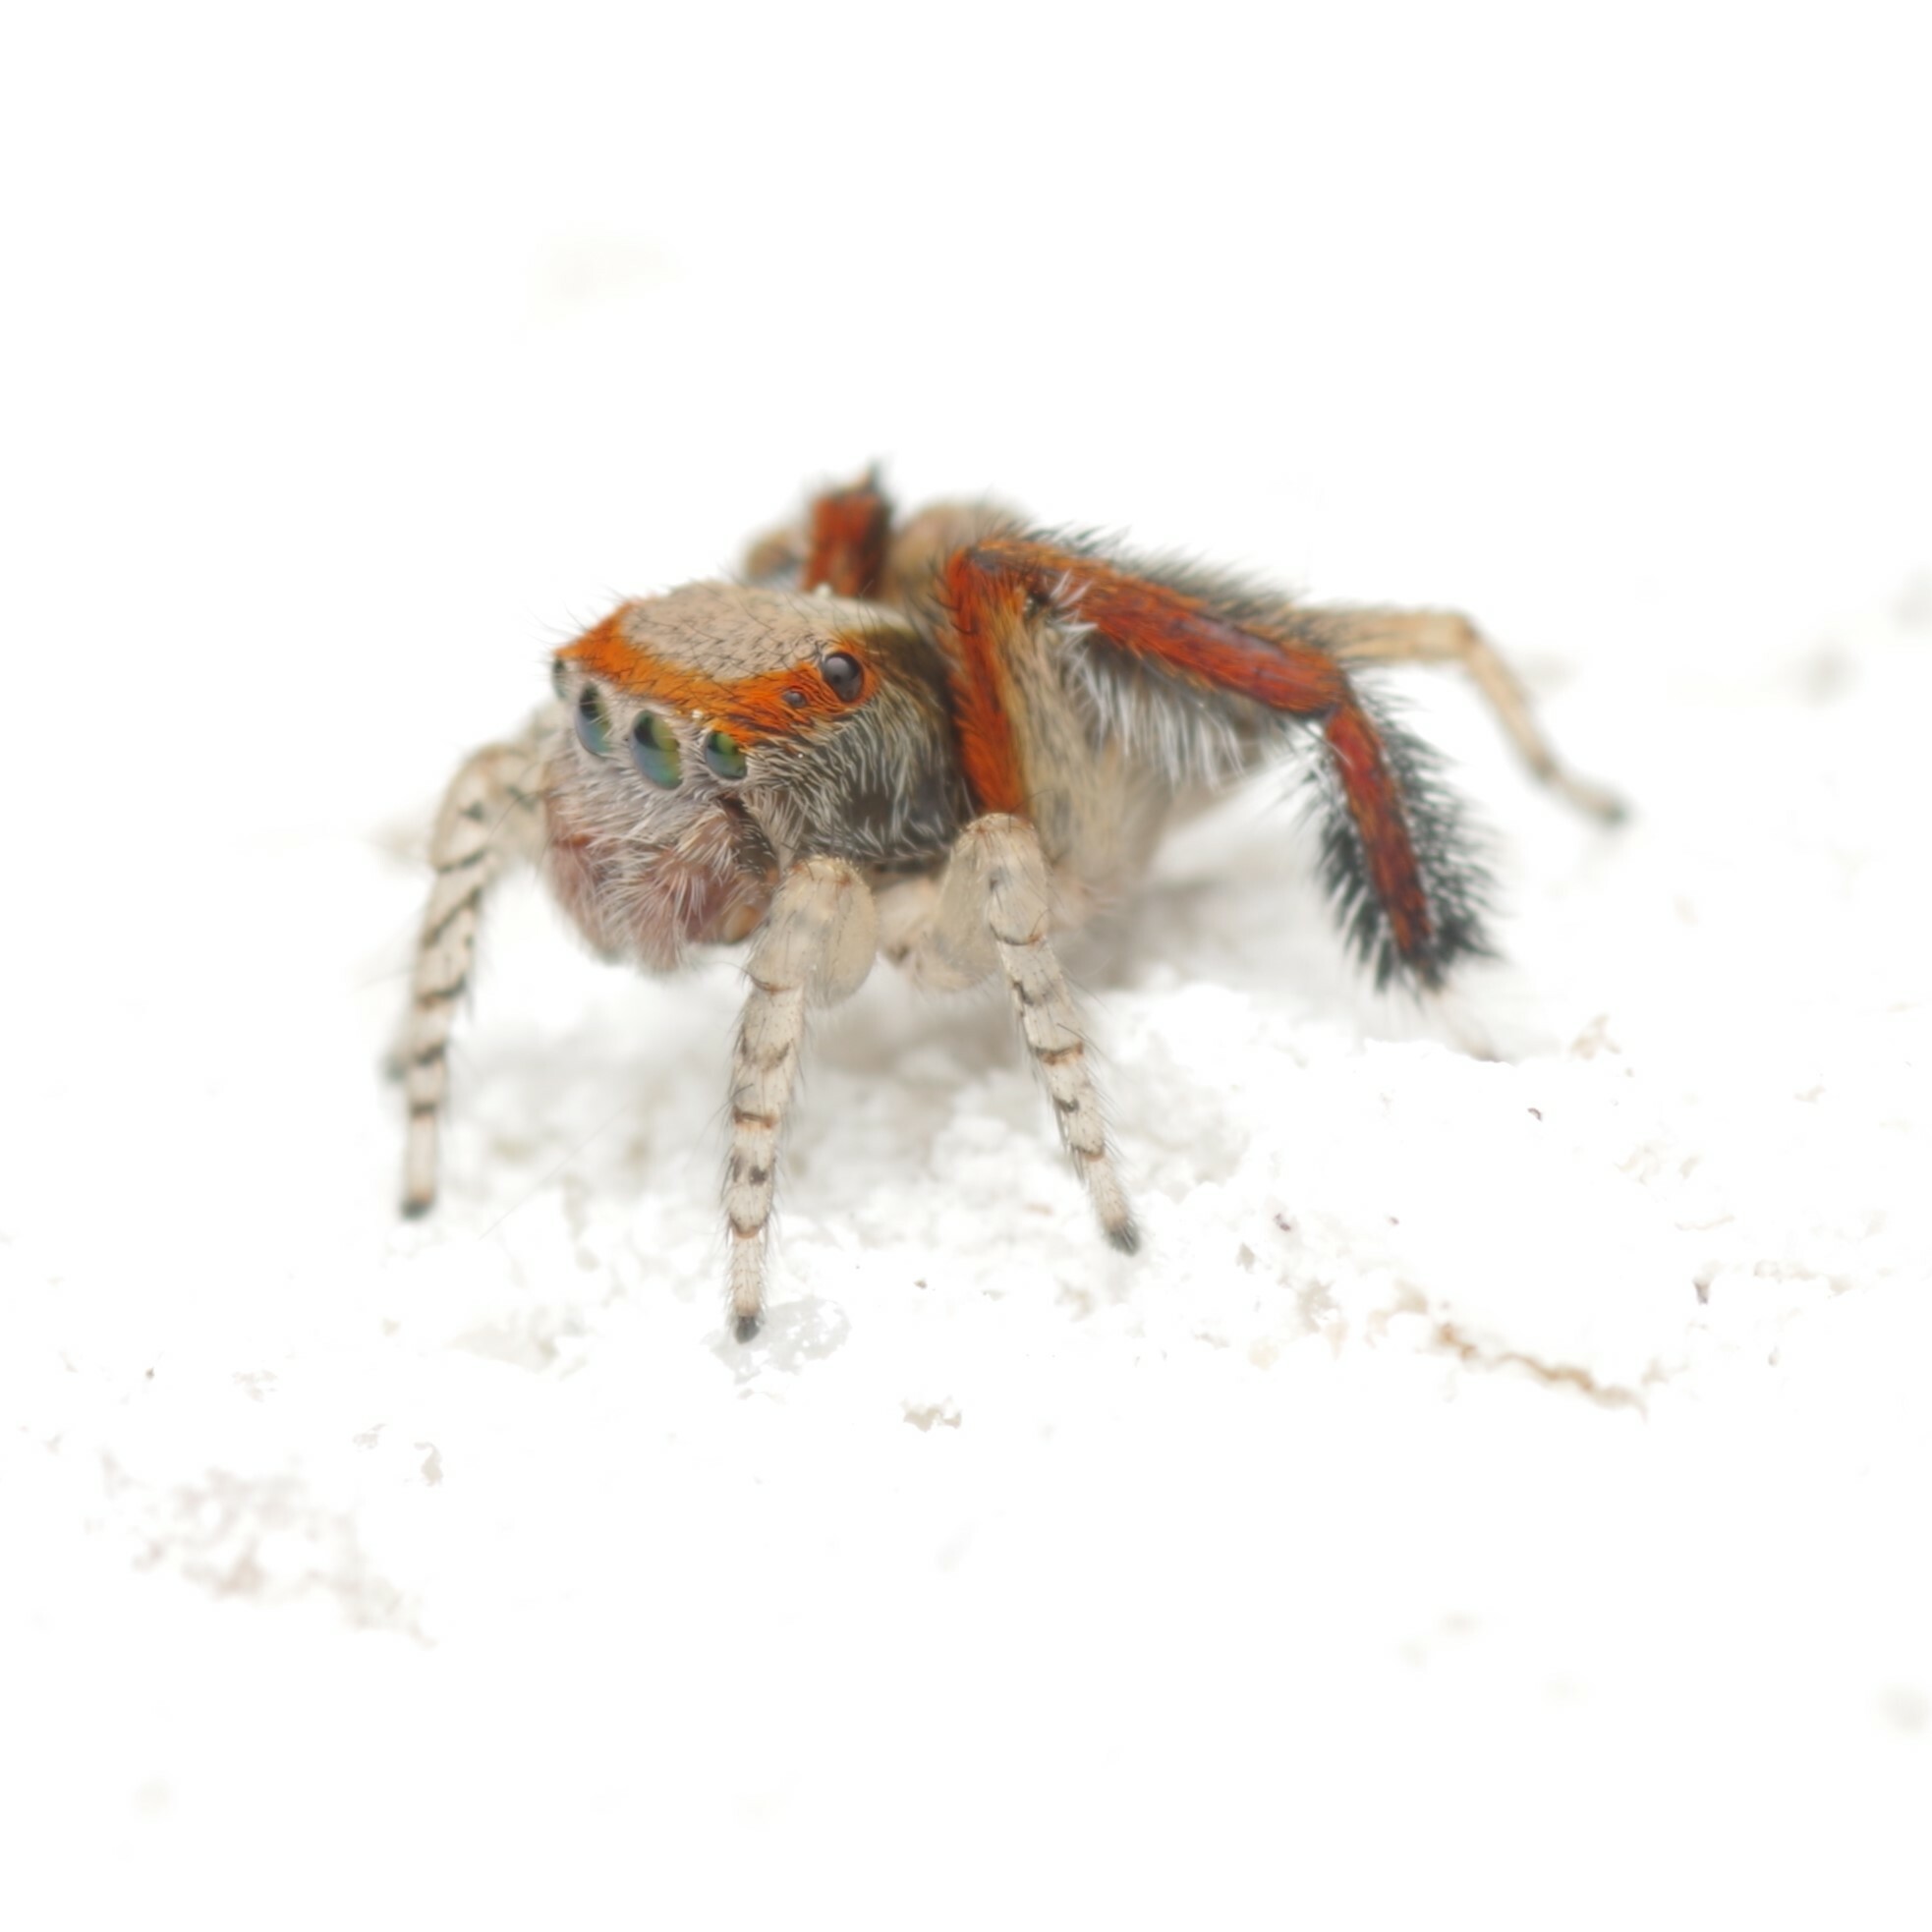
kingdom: Animalia
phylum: Arthropoda
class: Arachnida
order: Araneae
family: Salticidae
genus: Saitis
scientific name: Saitis barbipes
